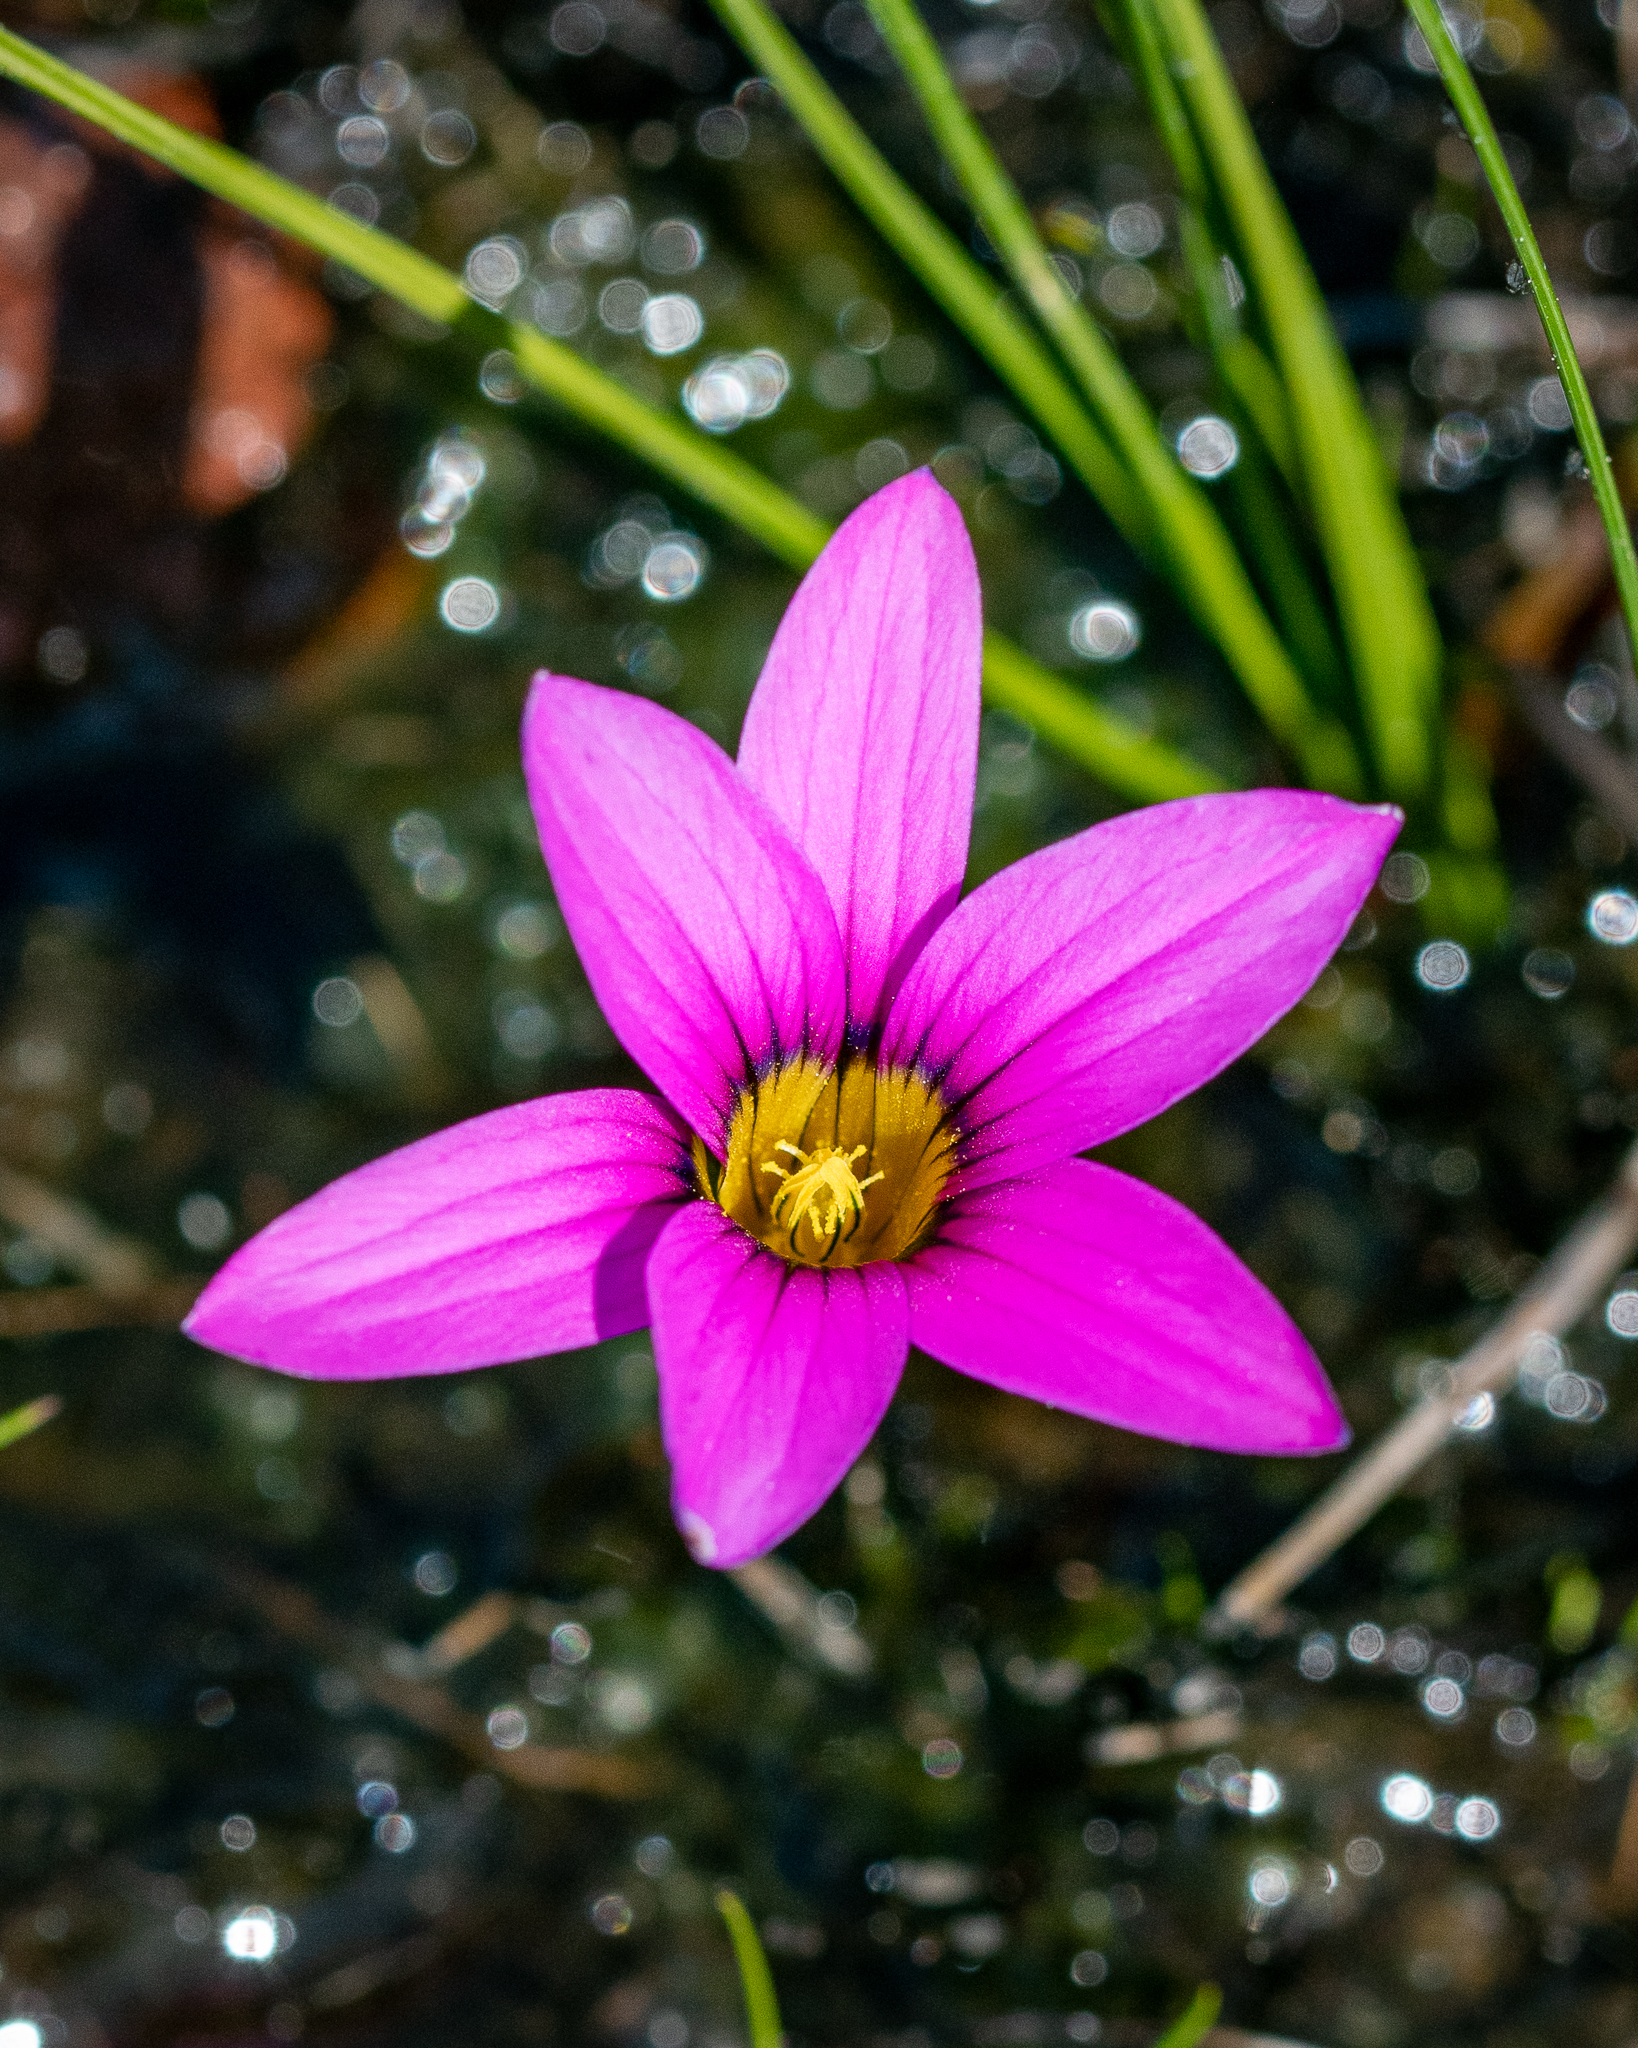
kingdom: Plantae
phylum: Tracheophyta
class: Liliopsida
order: Asparagales
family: Iridaceae
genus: Romulea
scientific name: Romulea rosea
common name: Oniongrass
